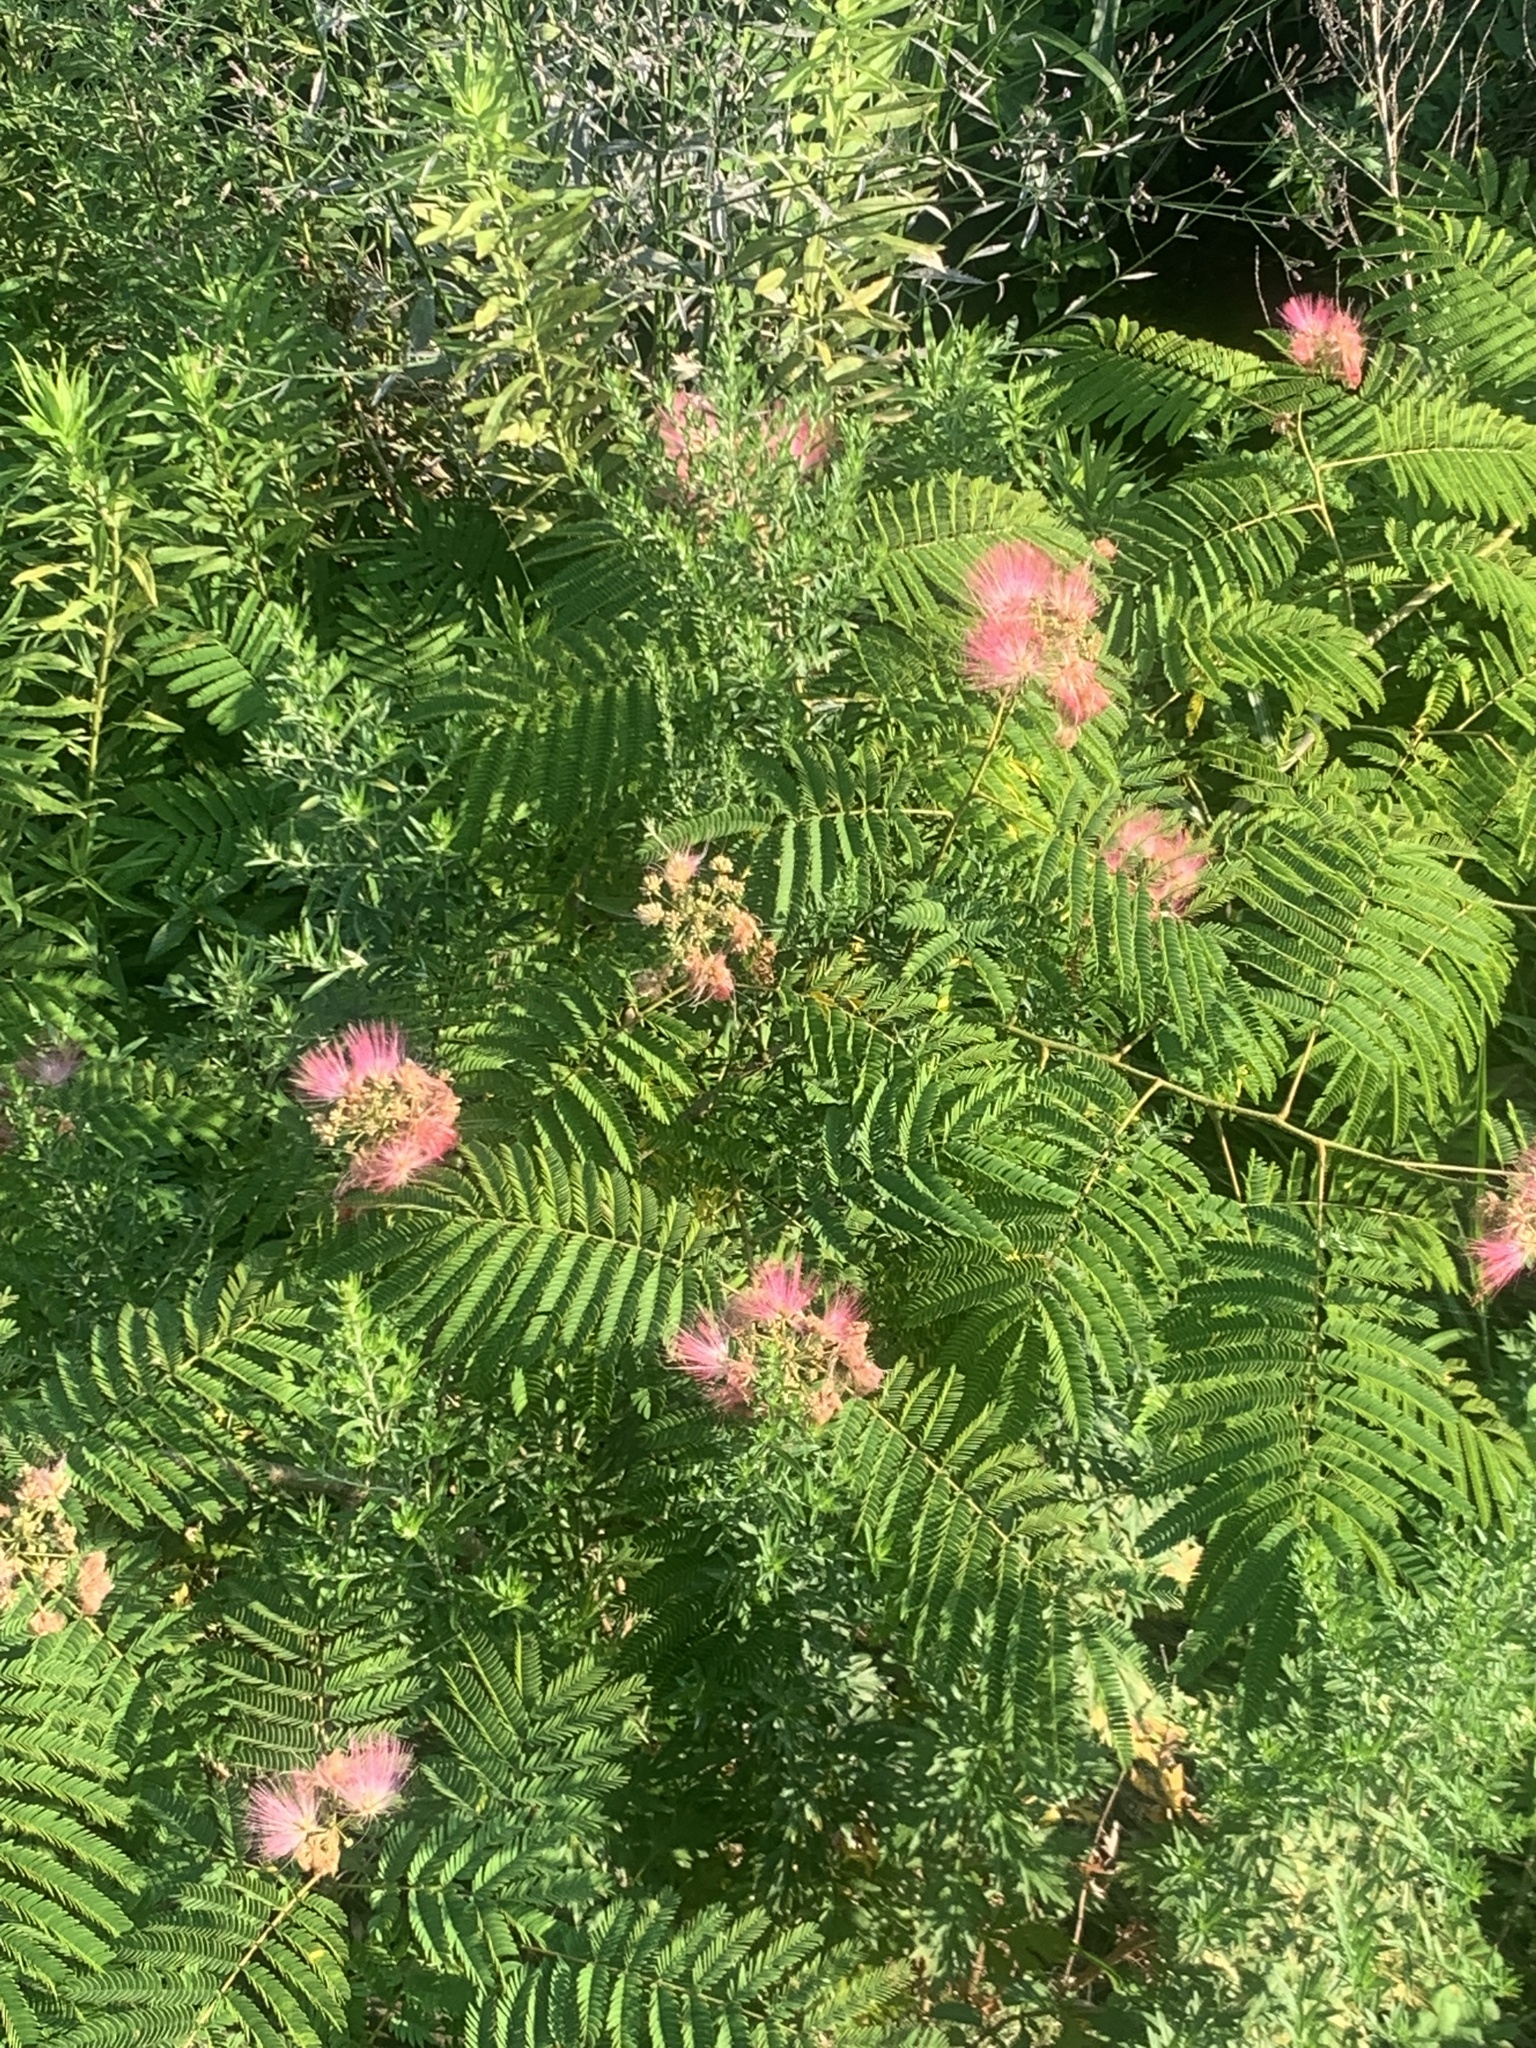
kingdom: Plantae
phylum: Tracheophyta
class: Magnoliopsida
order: Fabales
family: Fabaceae
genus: Albizia
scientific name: Albizia julibrissin
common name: Silktree
